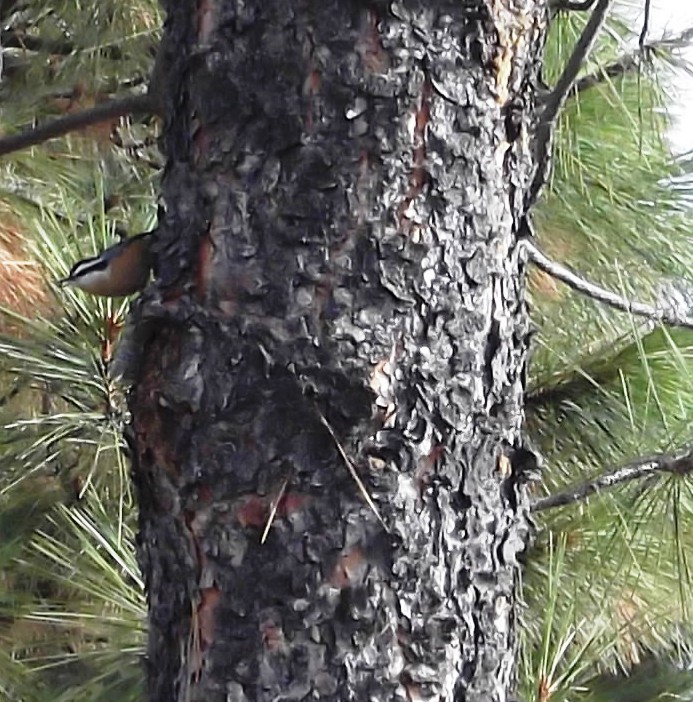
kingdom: Animalia
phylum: Chordata
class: Aves
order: Passeriformes
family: Sittidae
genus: Sitta
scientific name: Sitta canadensis
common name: Red-breasted nuthatch
